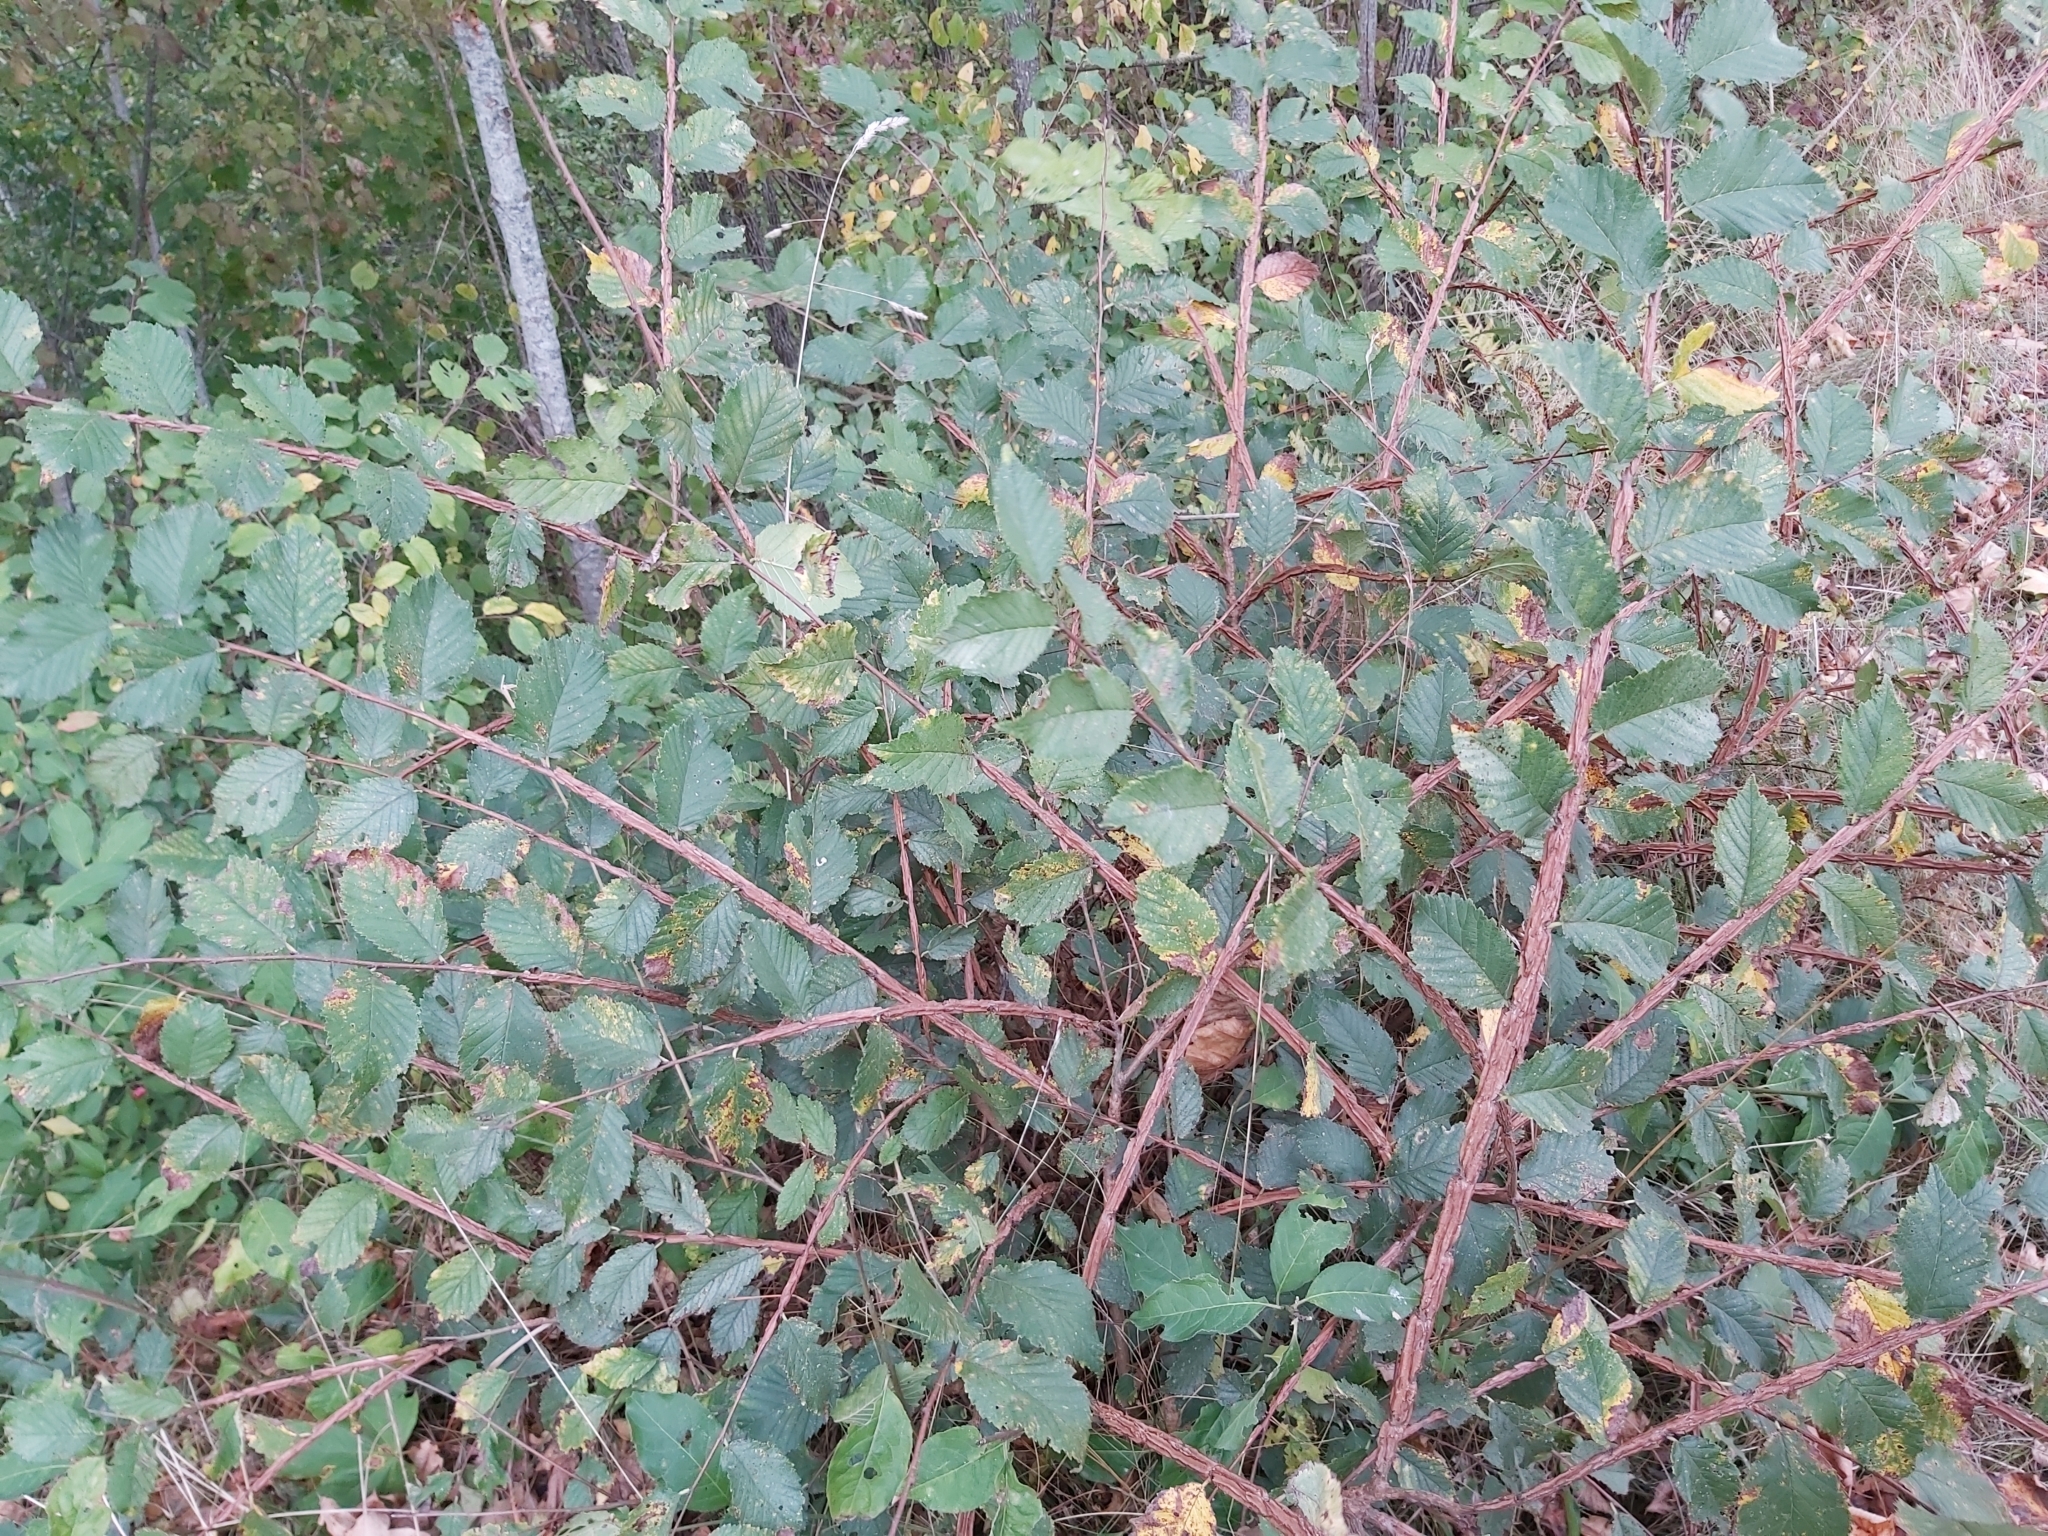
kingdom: Plantae
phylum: Tracheophyta
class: Magnoliopsida
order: Rosales
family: Ulmaceae
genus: Ulmus
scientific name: Ulmus minor
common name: Small-leaved elm
